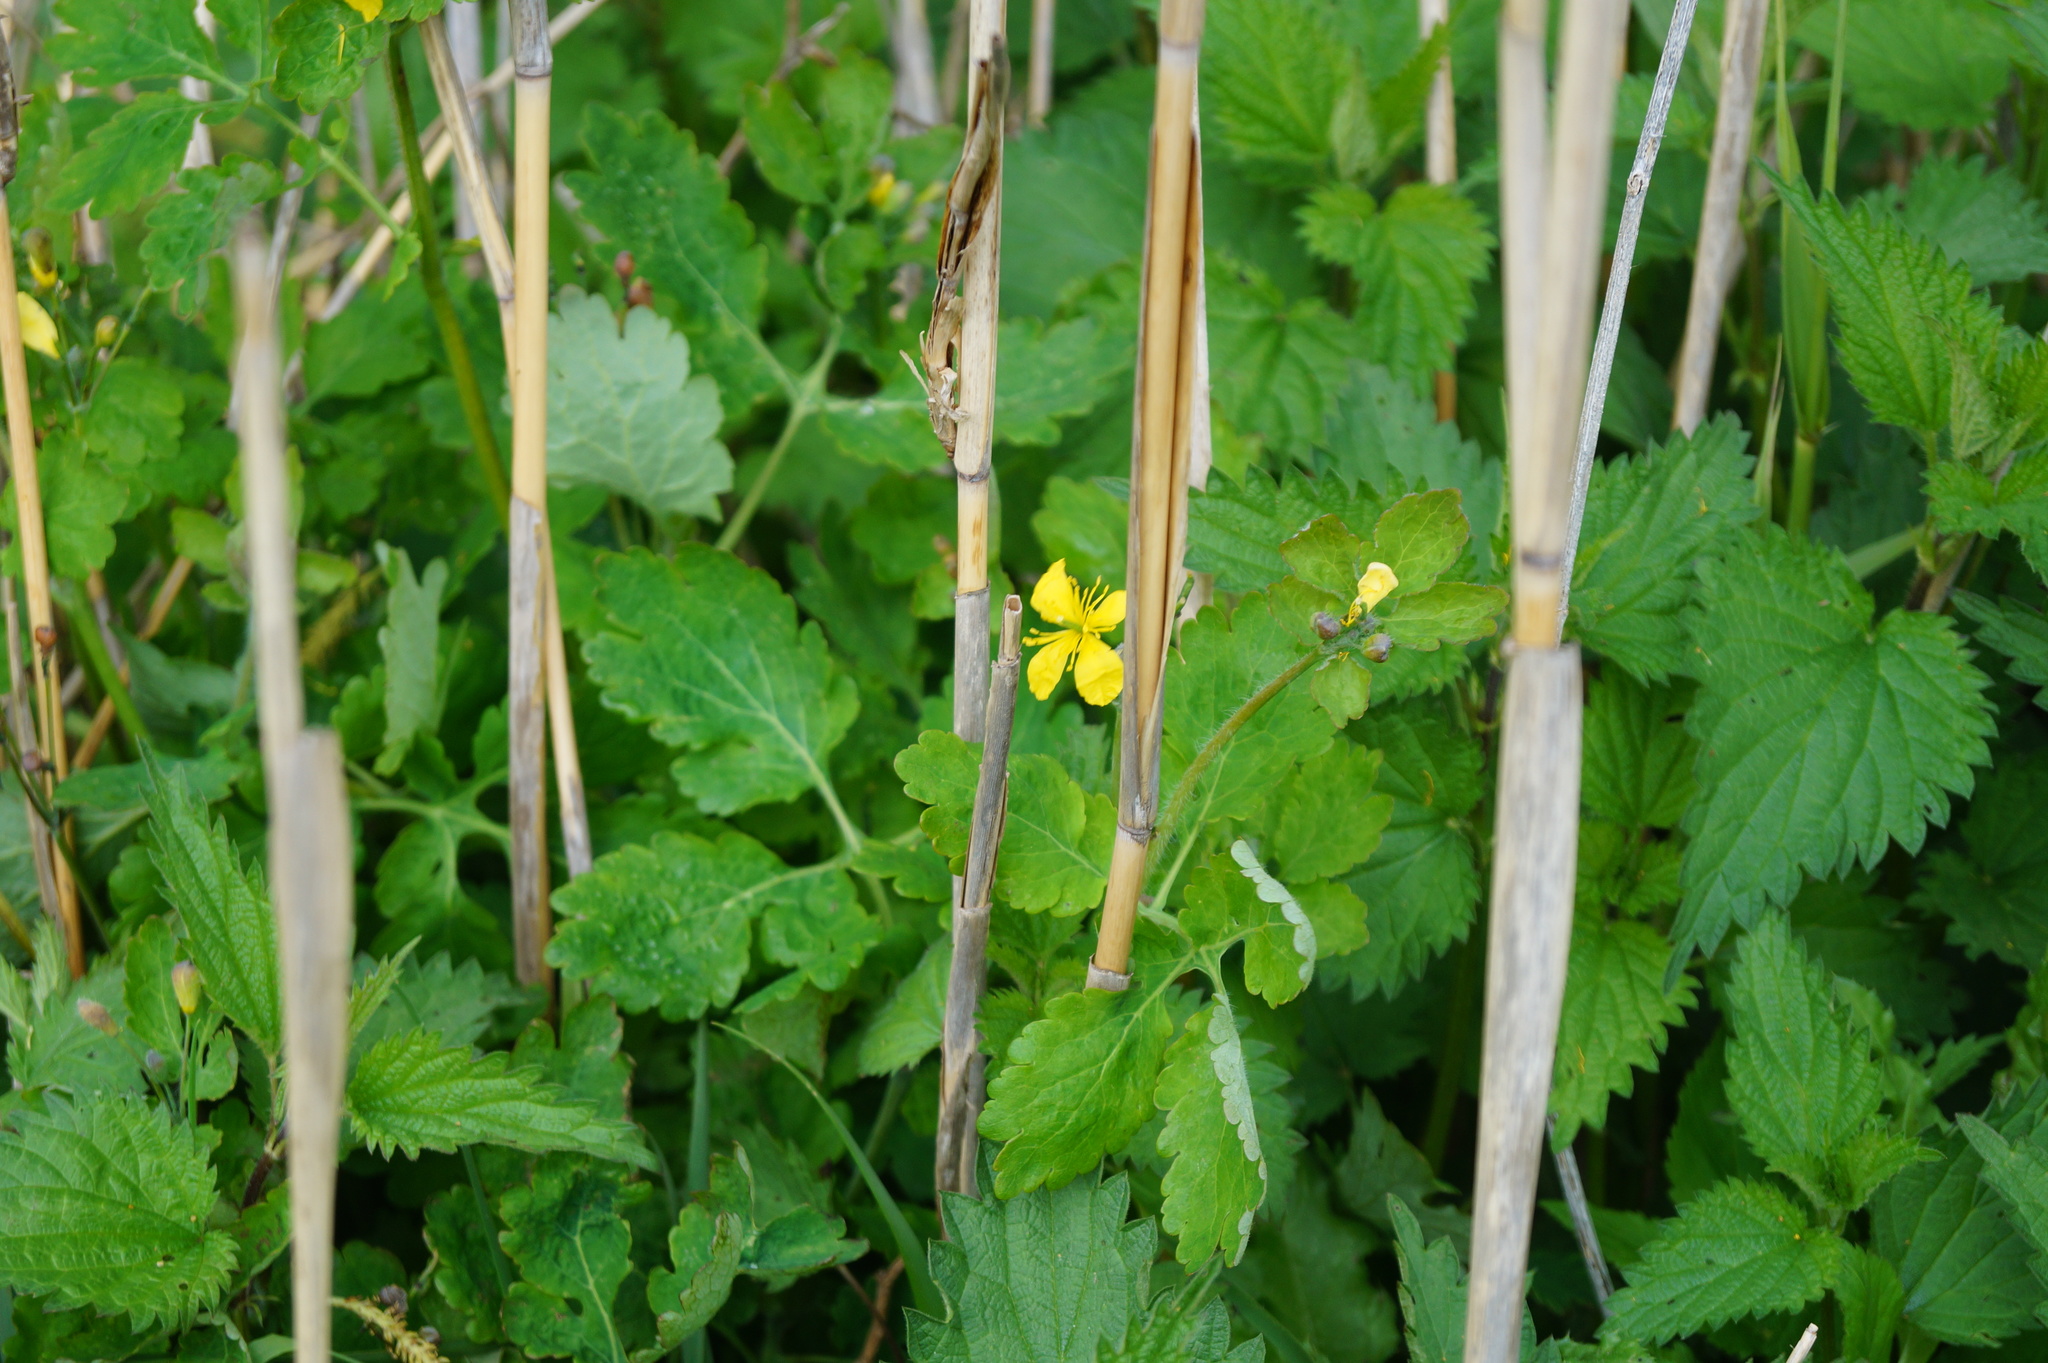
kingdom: Plantae
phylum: Tracheophyta
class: Magnoliopsida
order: Ranunculales
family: Papaveraceae
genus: Chelidonium
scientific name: Chelidonium majus
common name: Greater celandine
